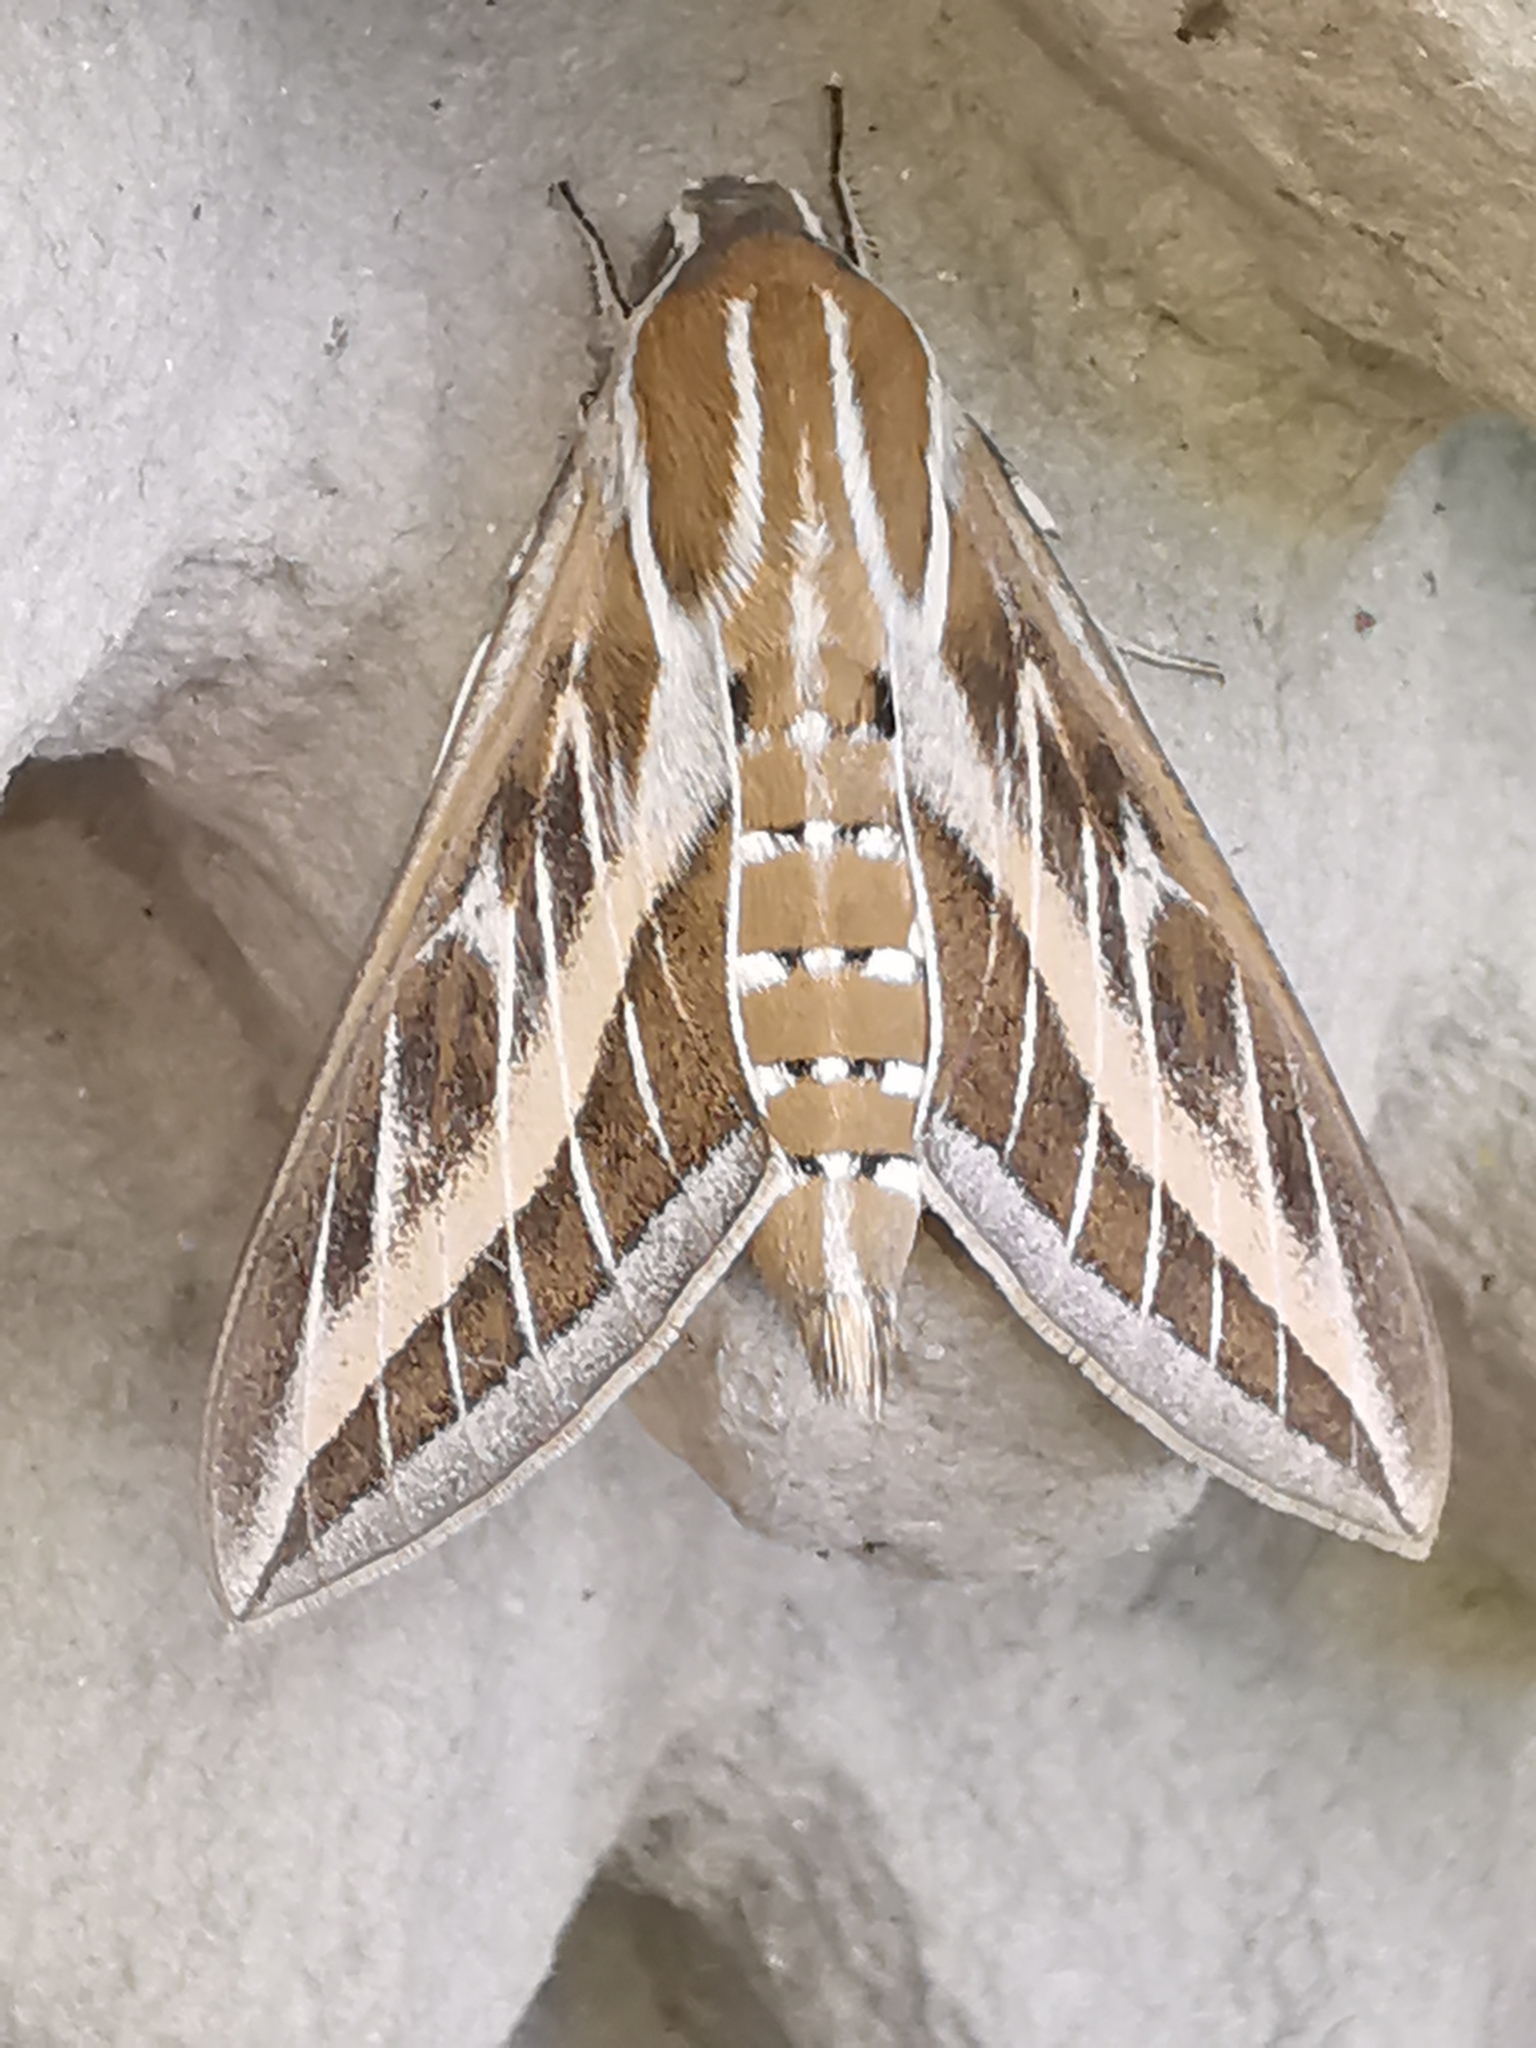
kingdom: Animalia
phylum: Arthropoda
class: Insecta
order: Lepidoptera
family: Sphingidae
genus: Hyles
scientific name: Hyles livornica
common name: Striped hawk-moth
